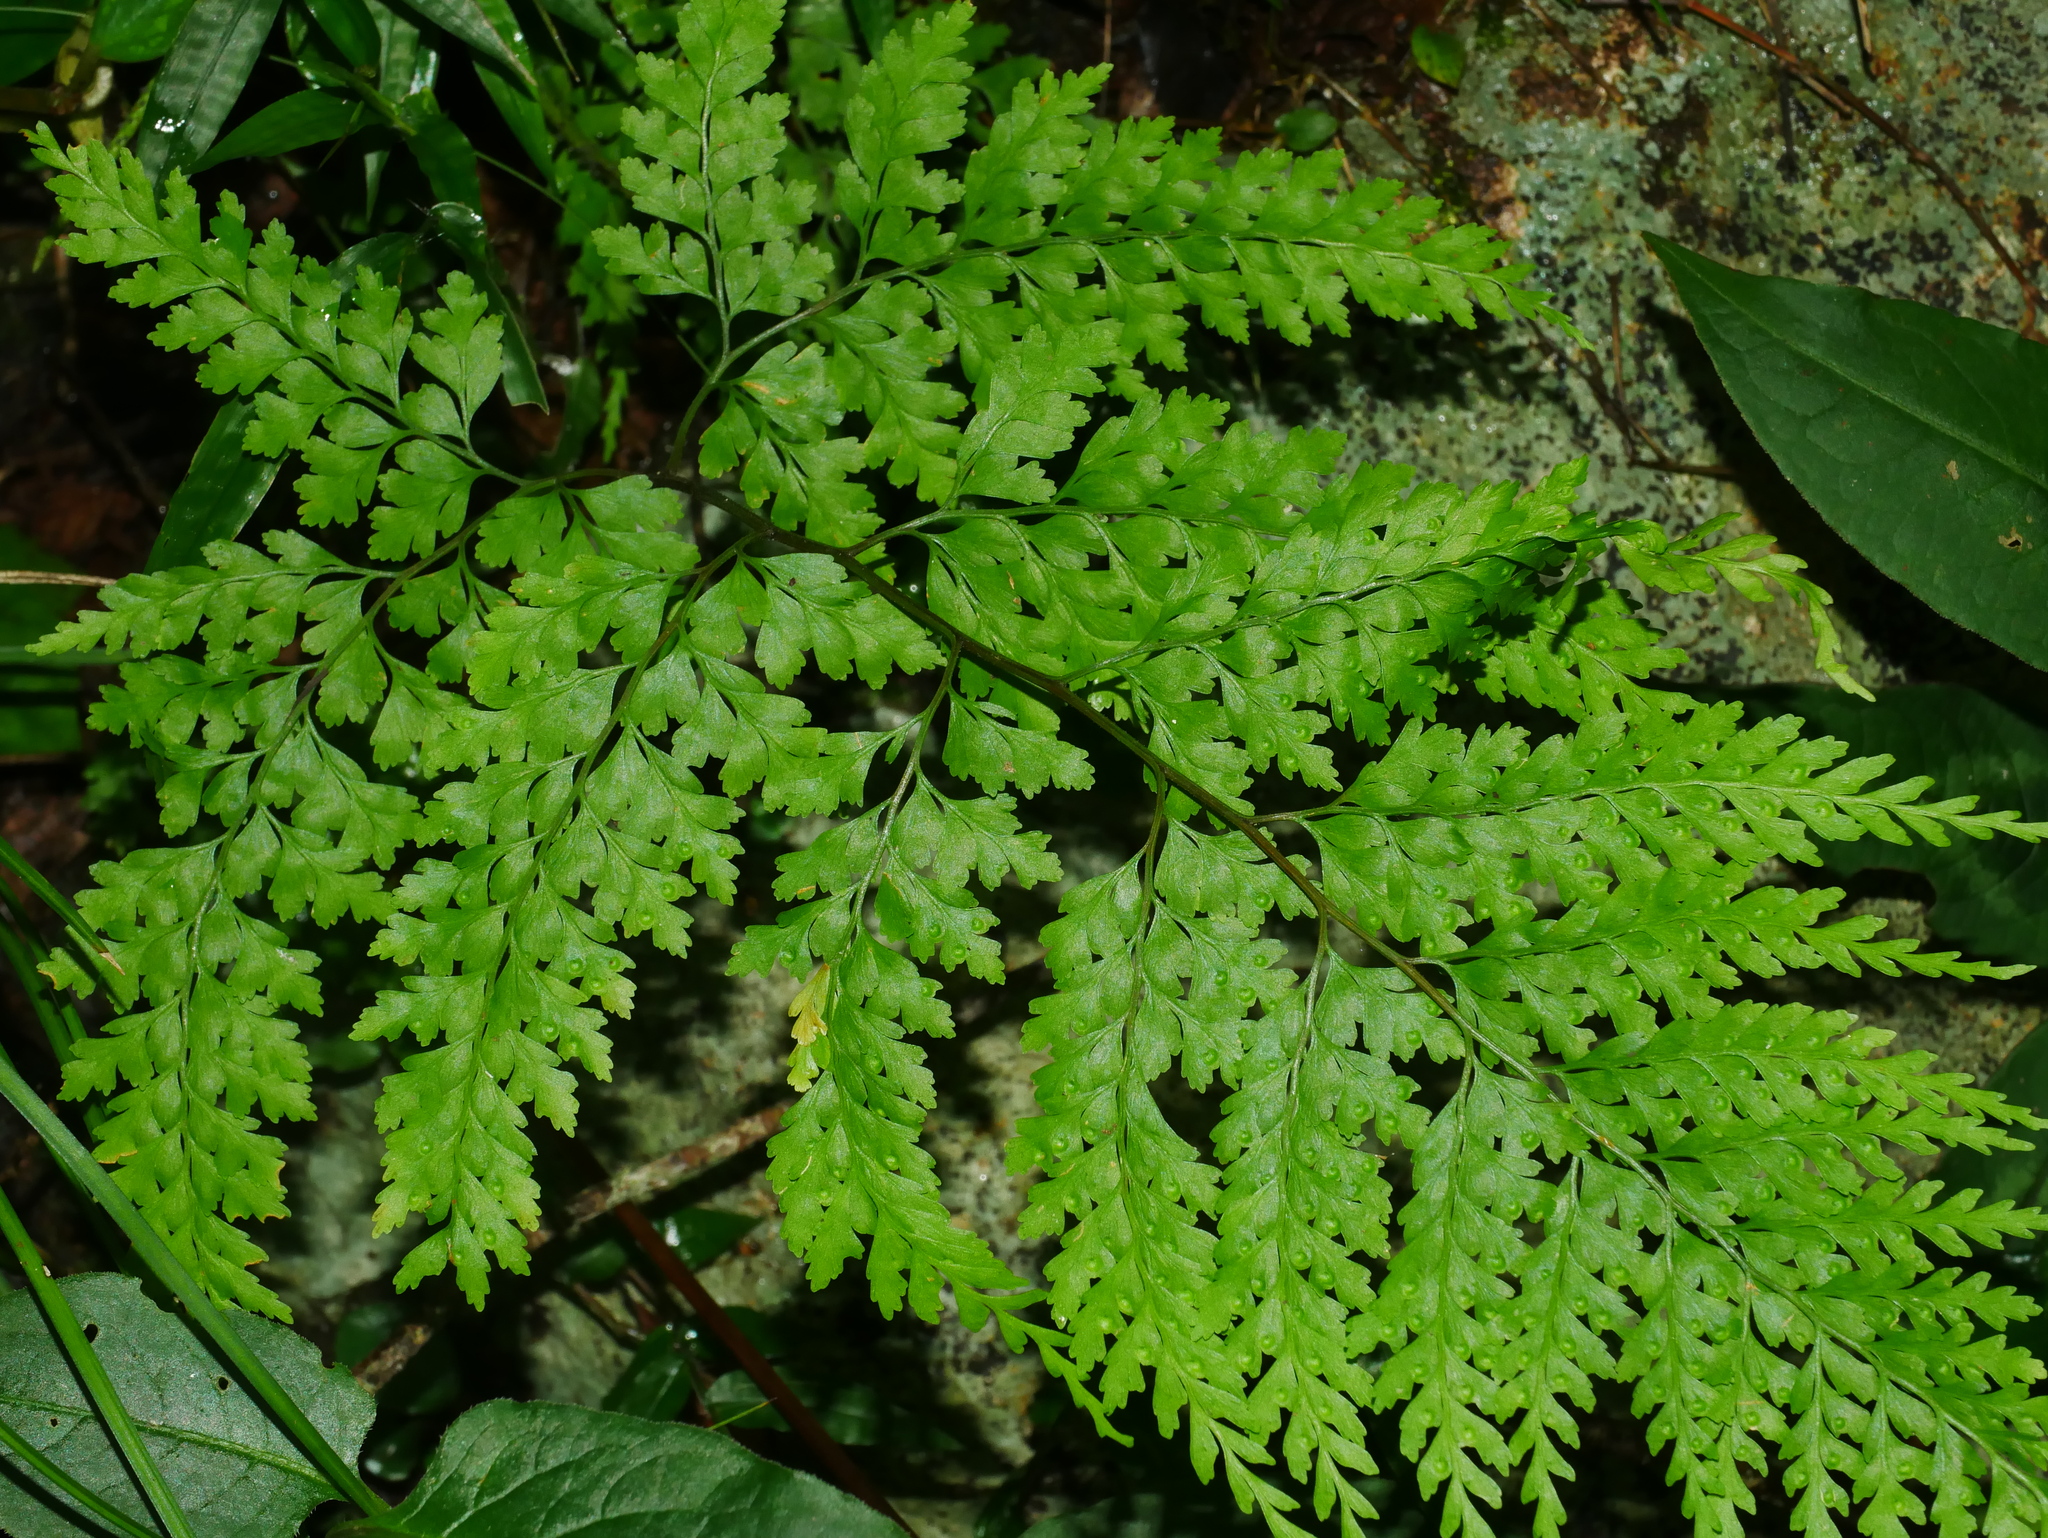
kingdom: Plantae
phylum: Tracheophyta
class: Polypodiopsida
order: Polypodiales
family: Hypodematiaceae
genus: Leucostegia
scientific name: Leucostegia immersa
